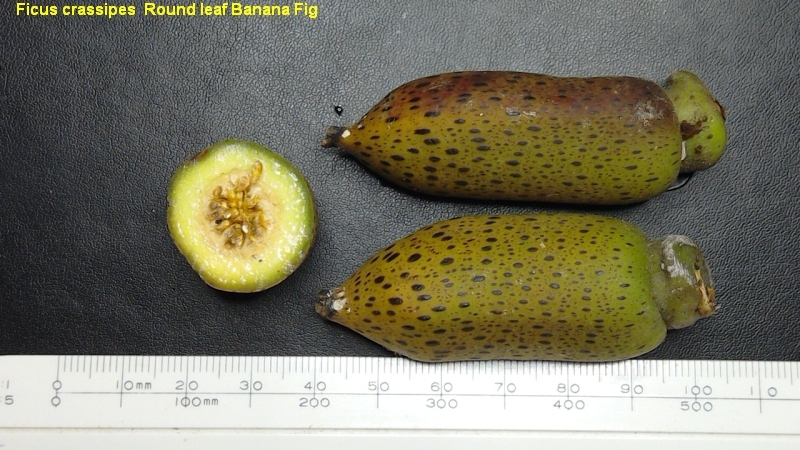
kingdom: Plantae
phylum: Tracheophyta
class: Magnoliopsida
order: Rosales
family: Moraceae
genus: Ficus
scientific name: Ficus crassipes
